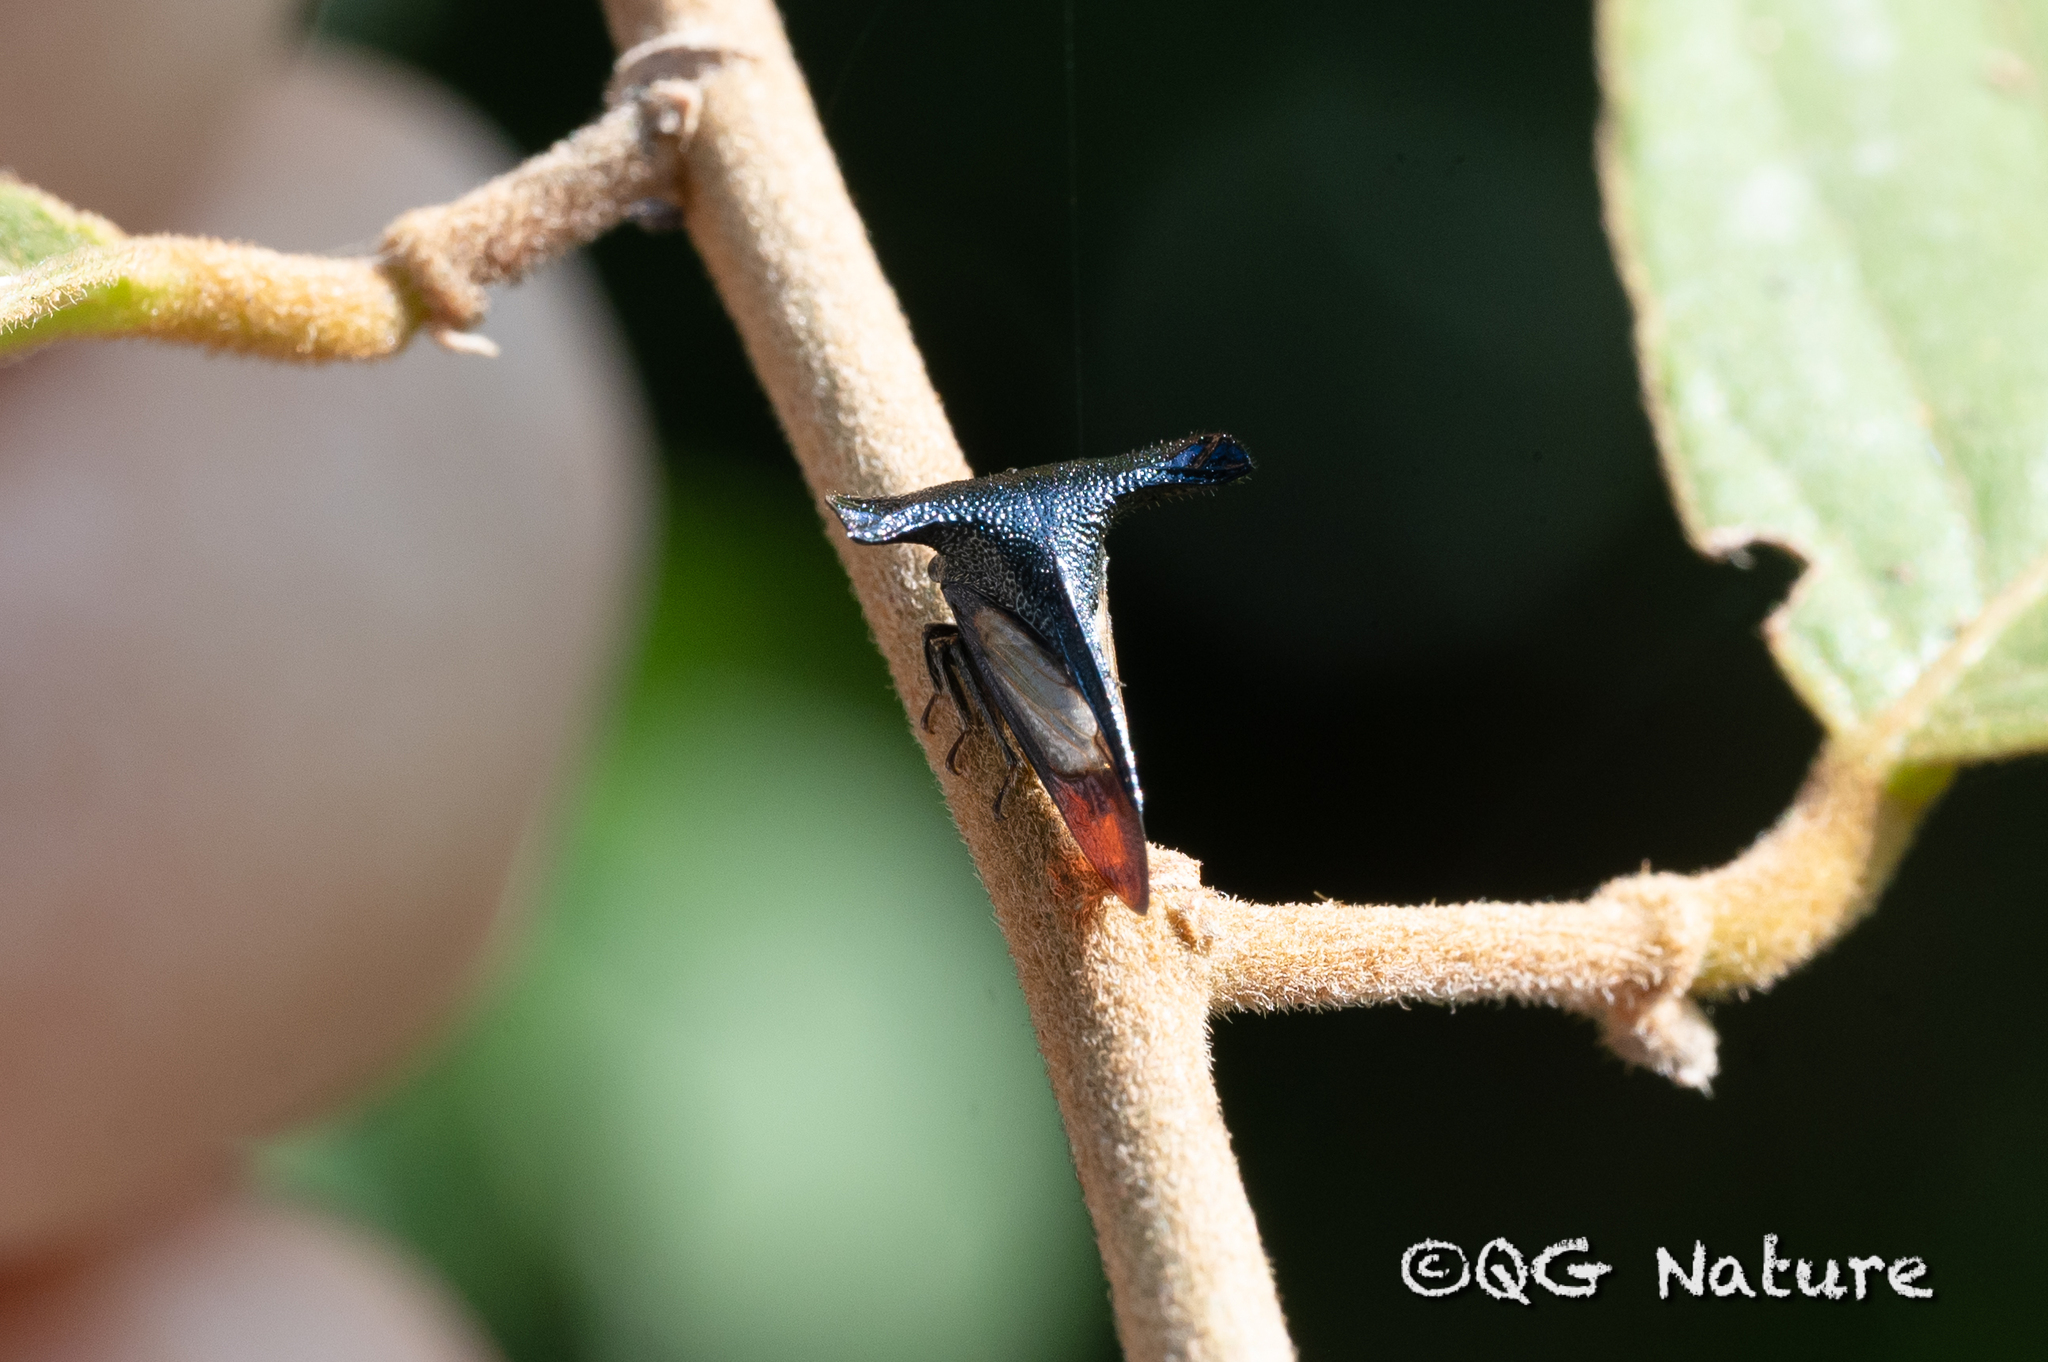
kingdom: Animalia
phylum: Arthropoda
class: Insecta
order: Hemiptera
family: Membracidae
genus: Centrotypus
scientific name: Centrotypus flexuosa
